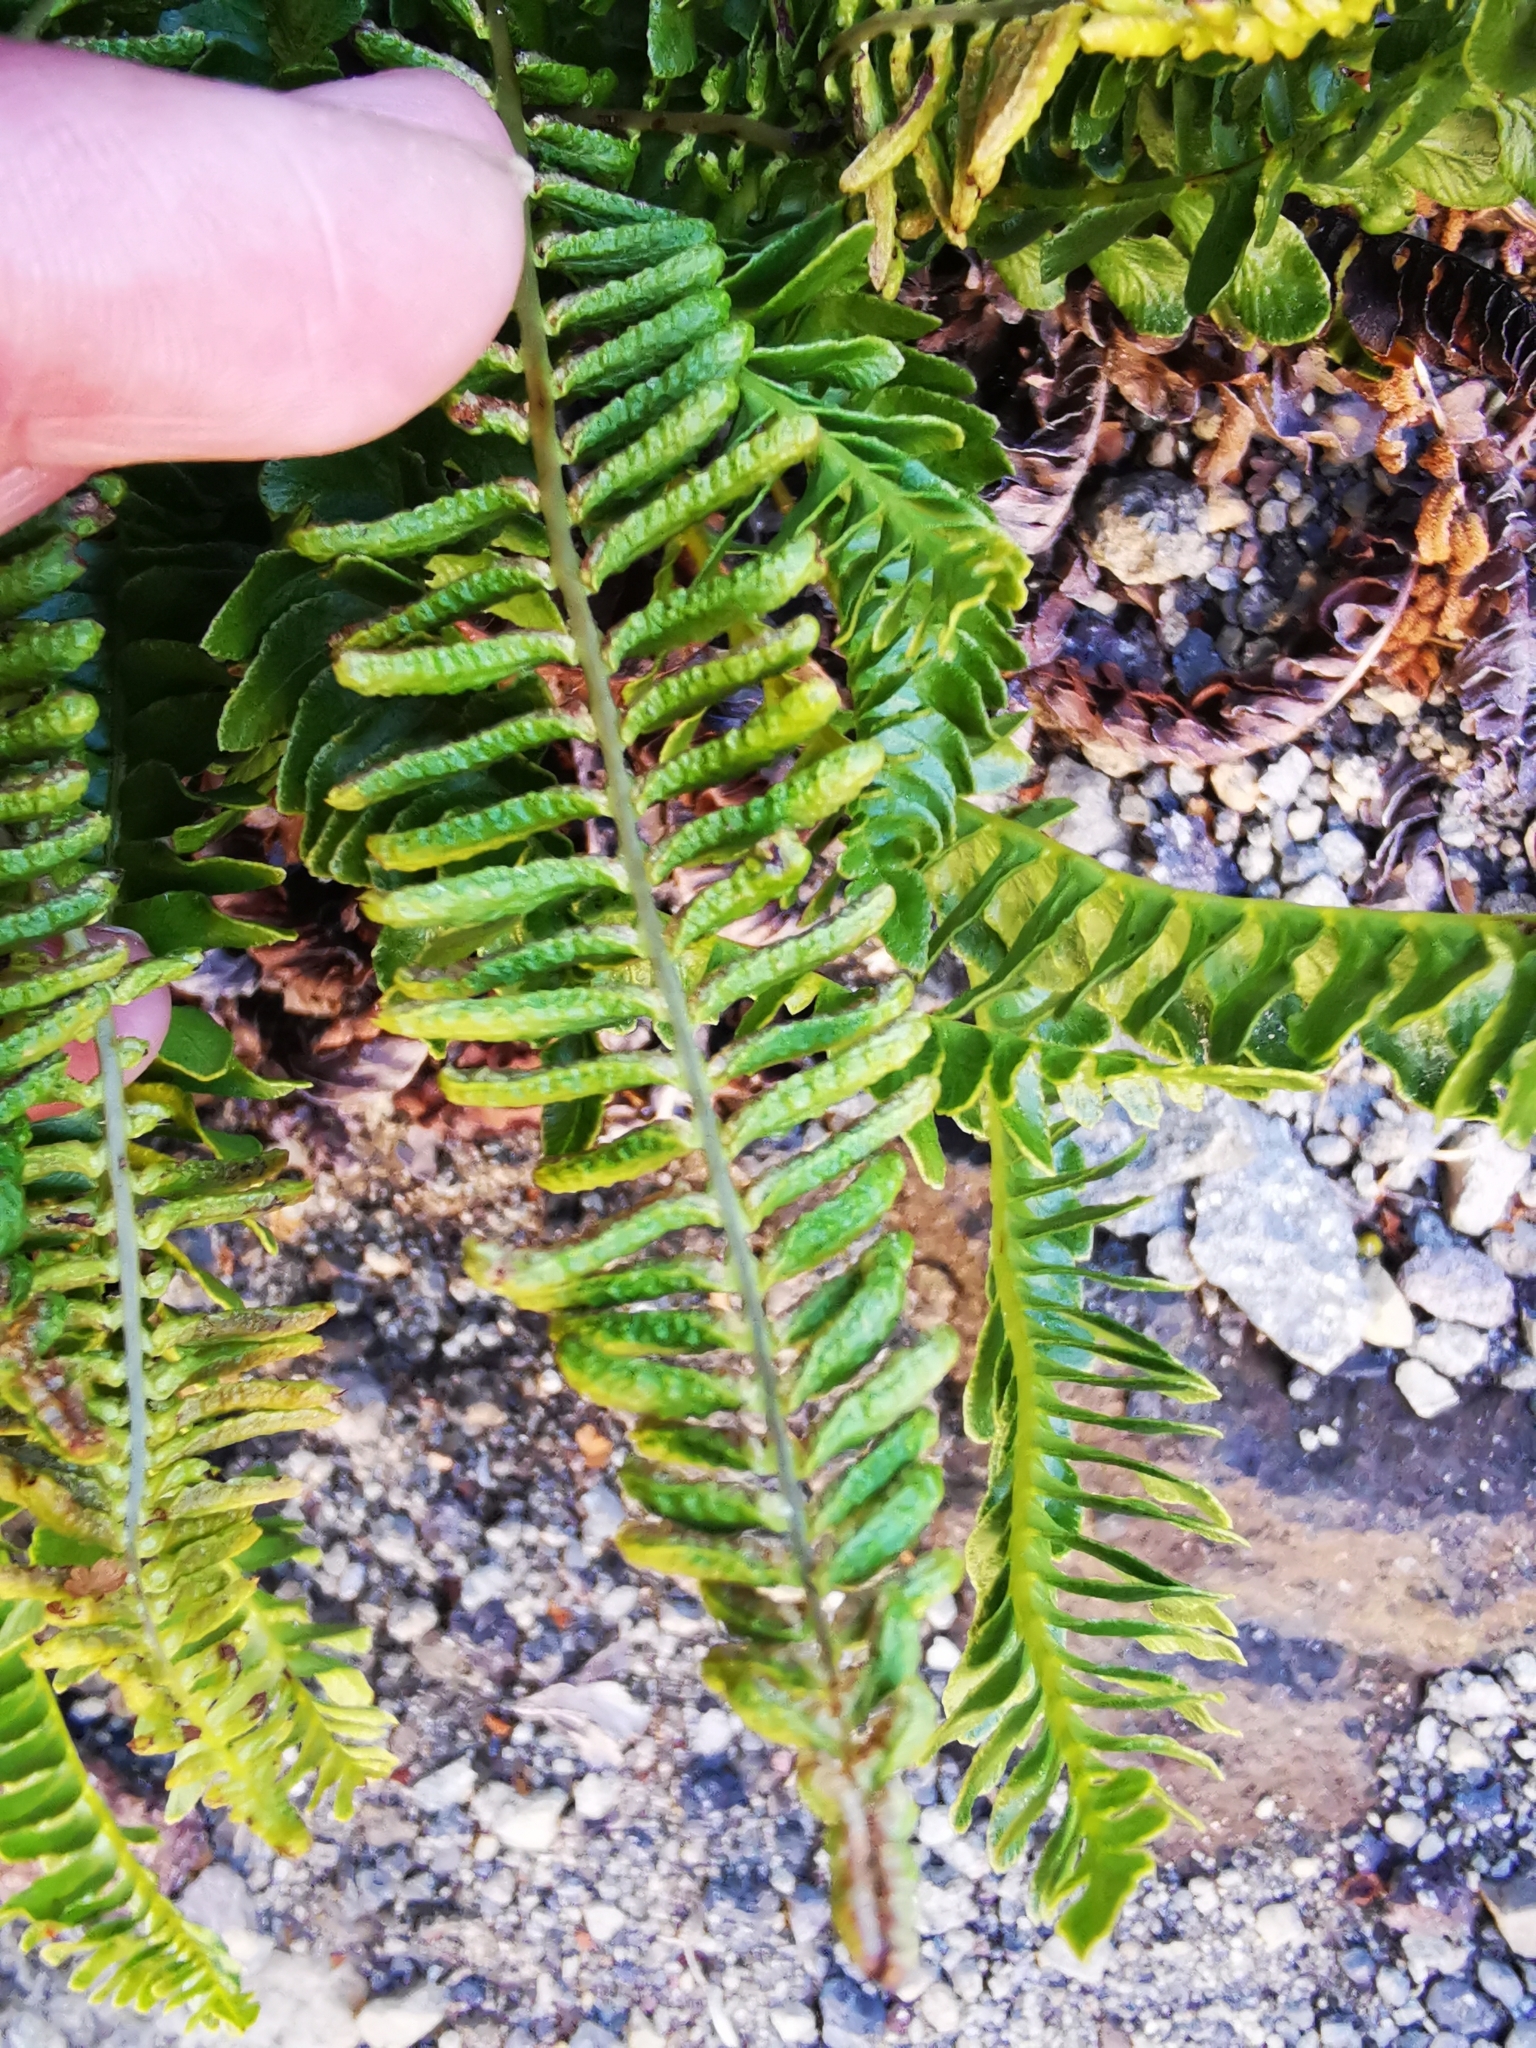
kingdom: Plantae
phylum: Tracheophyta
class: Polypodiopsida
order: Polypodiales
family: Blechnaceae
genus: Austroblechnum
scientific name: Austroblechnum microphyllum
